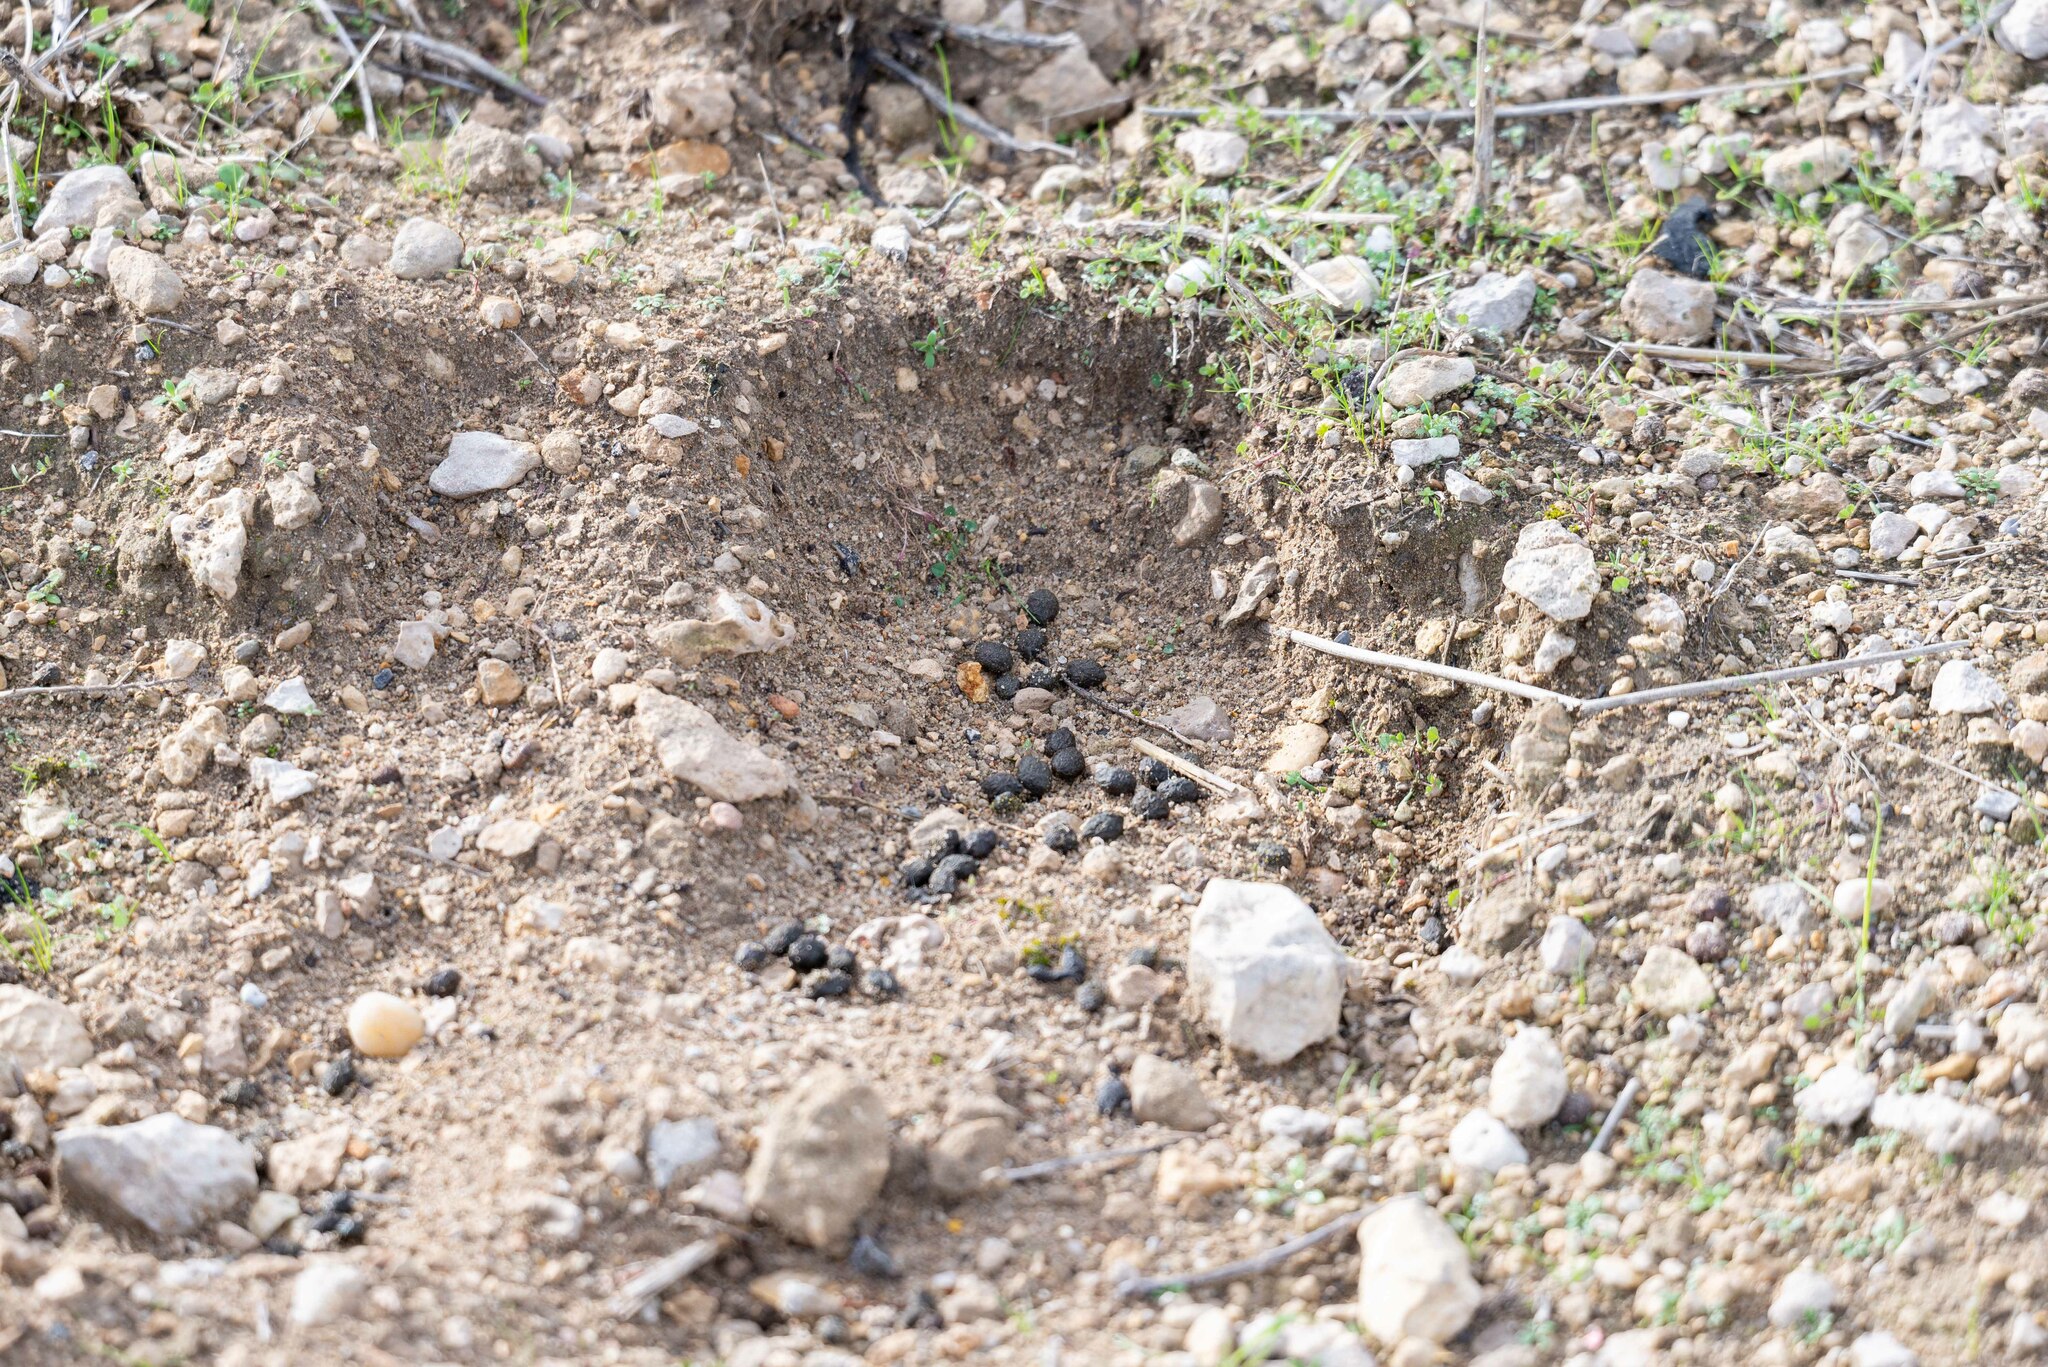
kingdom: Animalia
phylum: Chordata
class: Mammalia
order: Lagomorpha
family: Leporidae
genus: Oryctolagus
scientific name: Oryctolagus cuniculus
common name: European rabbit
